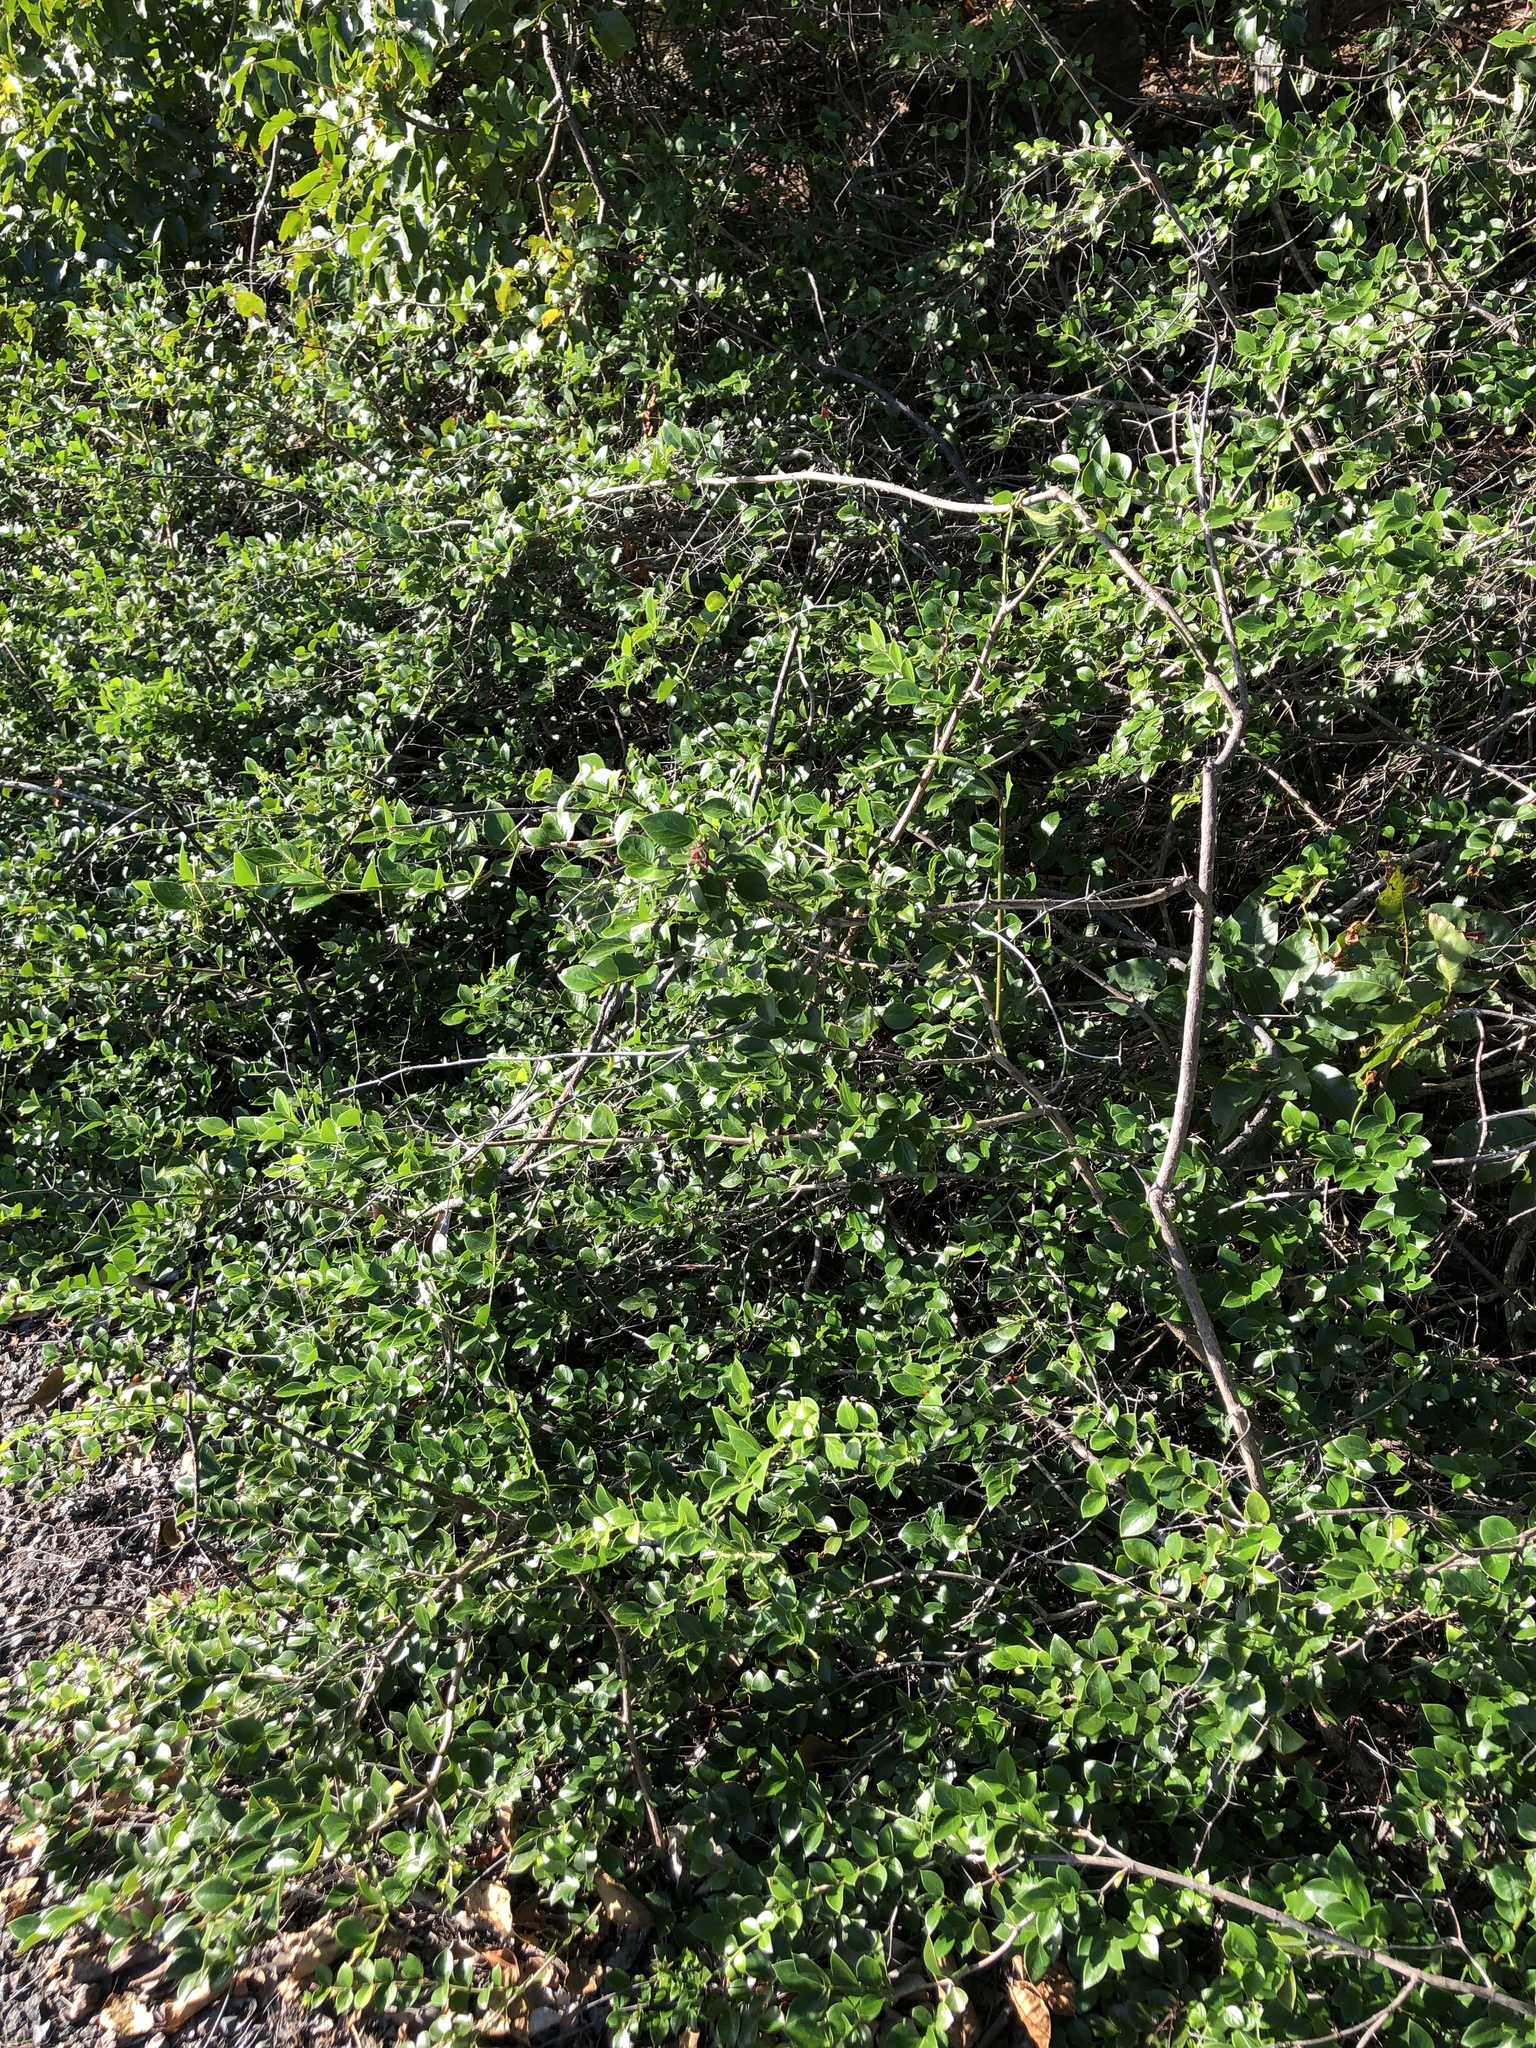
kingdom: Plantae
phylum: Tracheophyta
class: Magnoliopsida
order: Gentianales
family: Apocynaceae
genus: Carissa
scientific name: Carissa ovata
